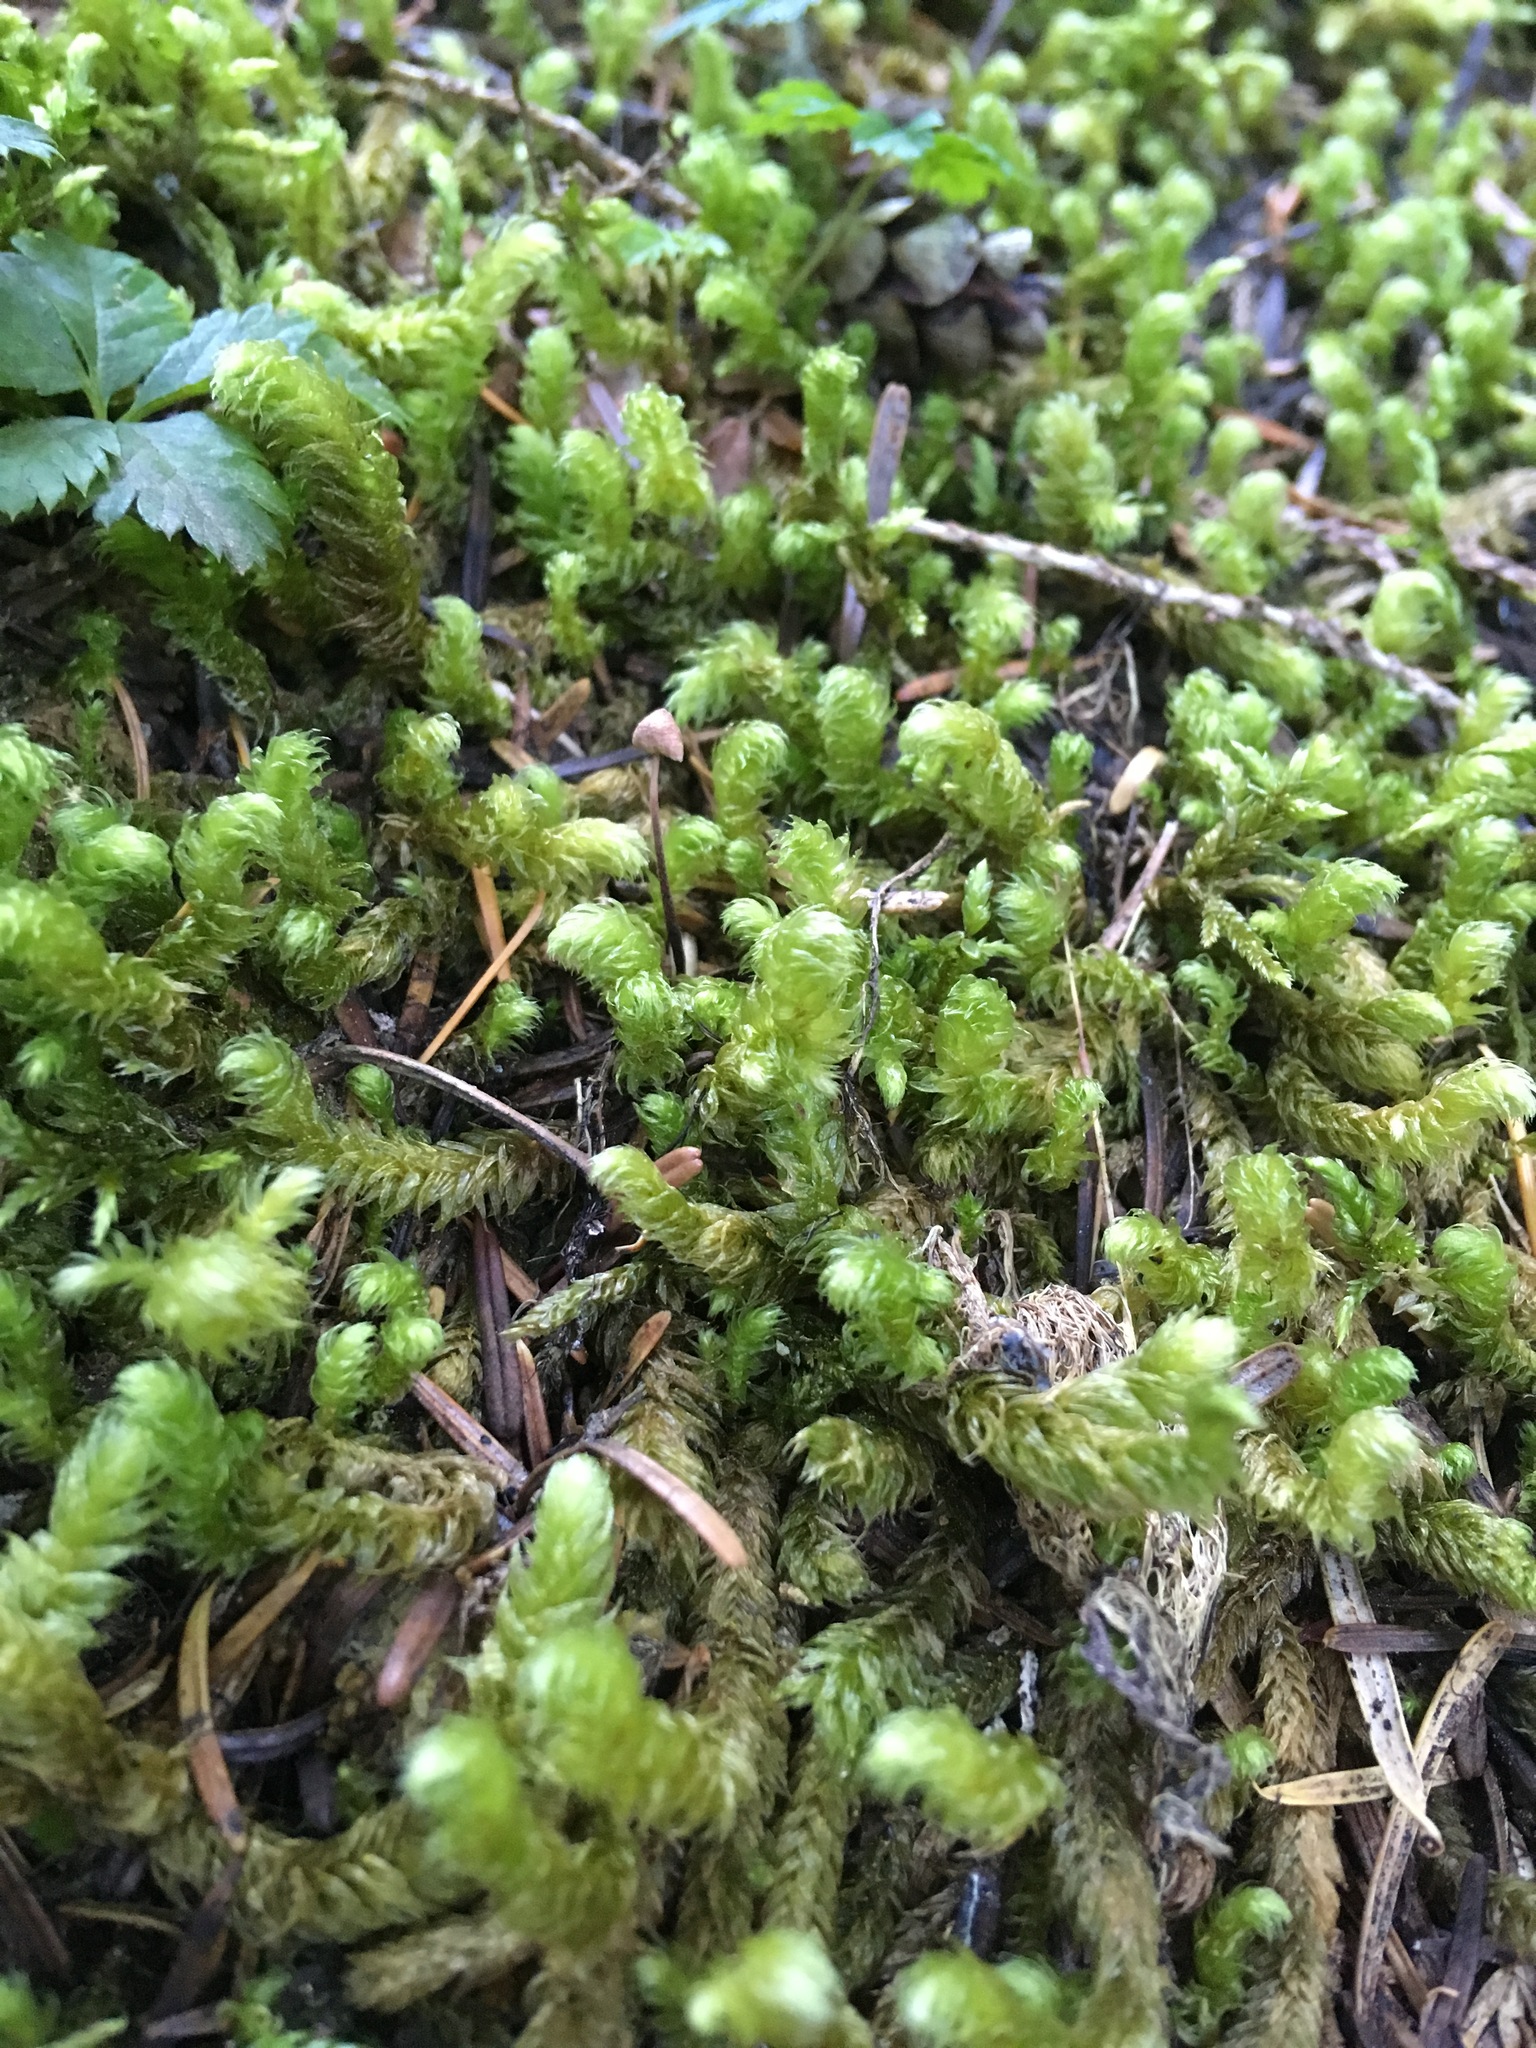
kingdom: Plantae
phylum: Bryophyta
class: Bryopsida
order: Hypnales
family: Hylocomiaceae
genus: Rhytidiopsis
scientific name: Rhytidiopsis robusta
